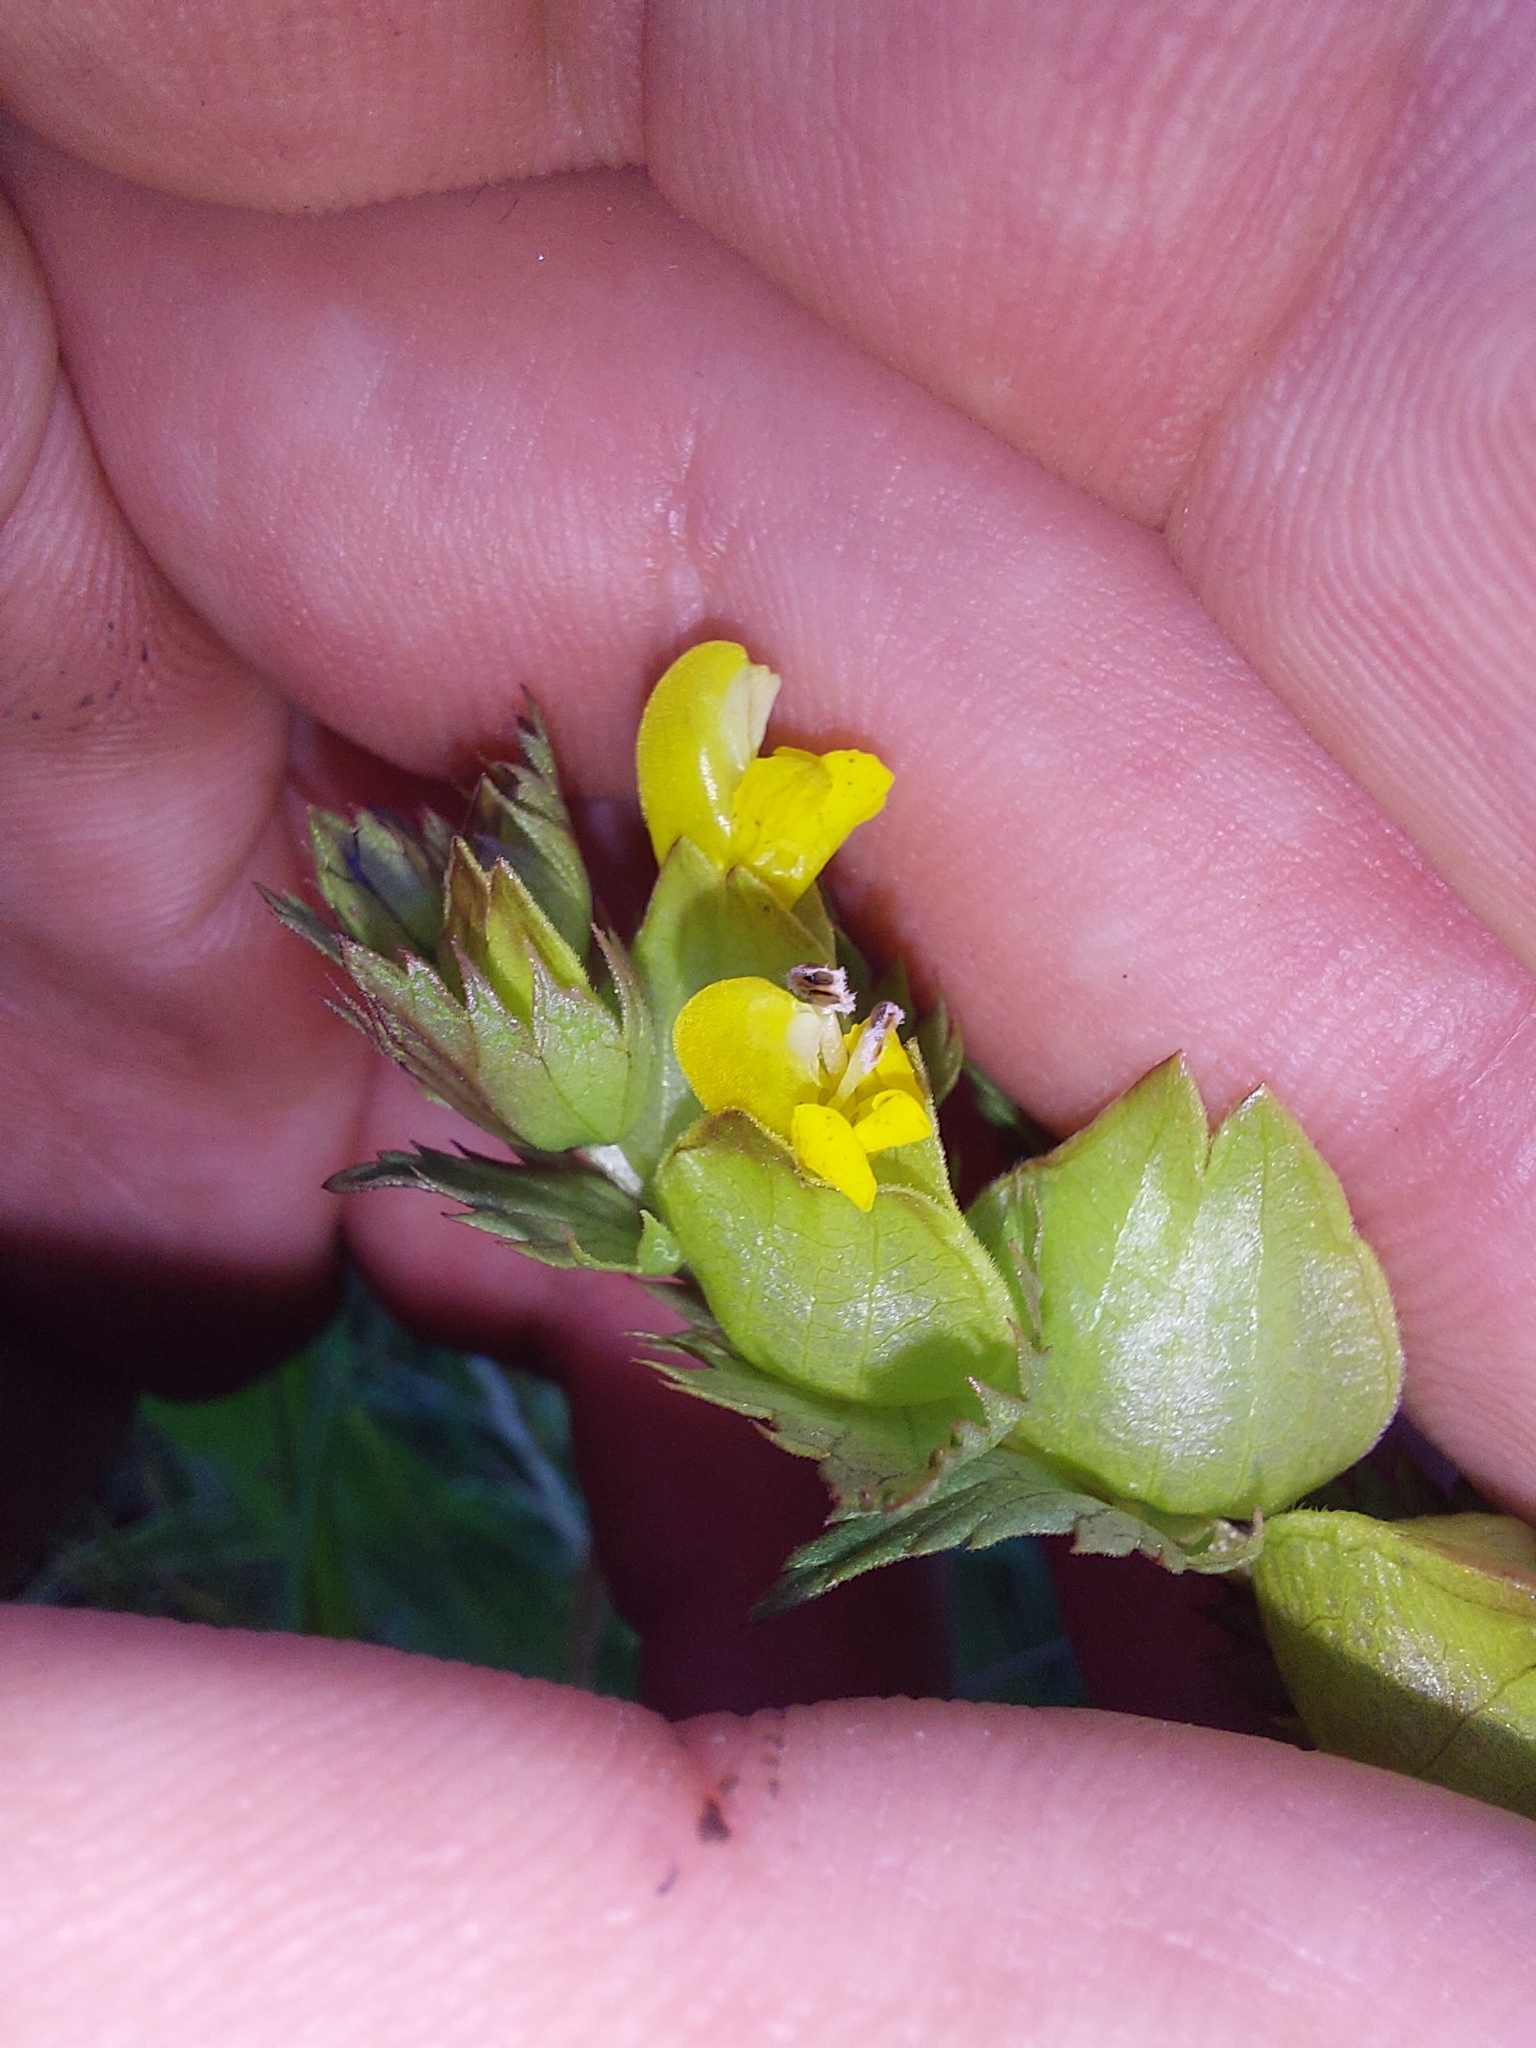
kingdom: Plantae
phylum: Tracheophyta
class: Magnoliopsida
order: Lamiales
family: Orobanchaceae
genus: Rhinanthus
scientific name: Rhinanthus minor
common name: Yellow-rattle
